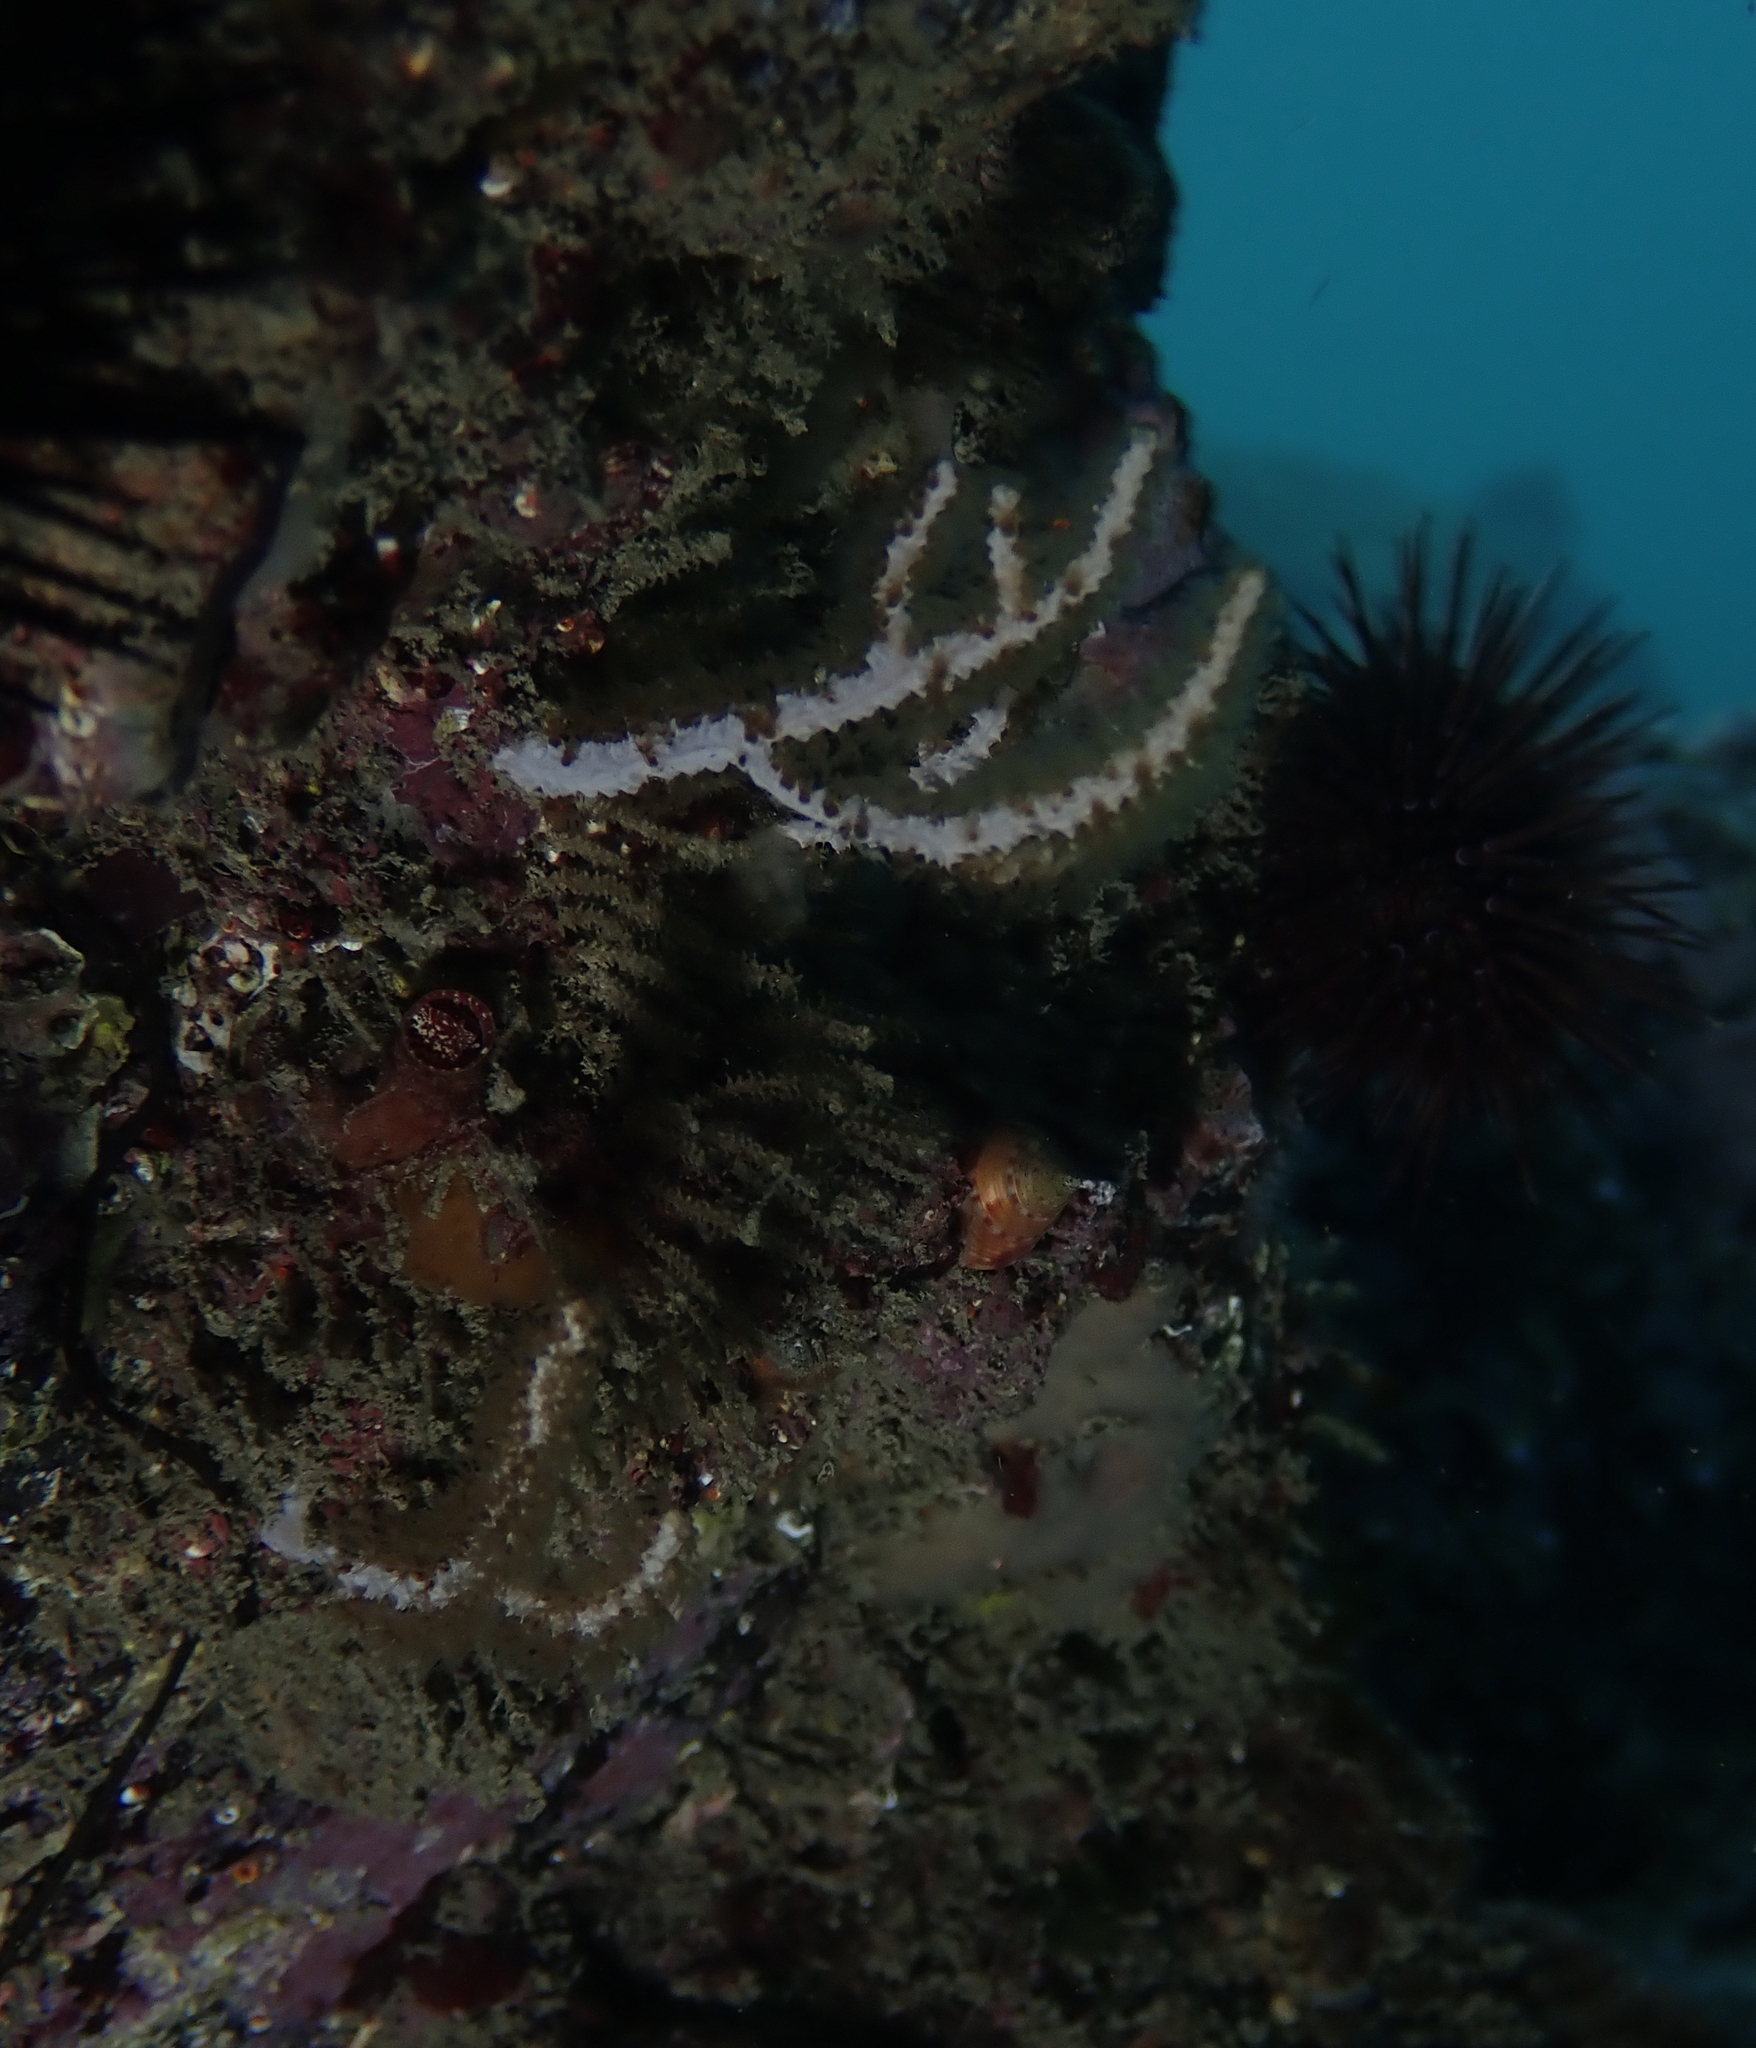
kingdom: Animalia
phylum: Cnidaria
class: Anthozoa
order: Malacalcyonacea
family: Eunicellidae
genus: Eunicella
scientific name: Eunicella singularis
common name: White horny coral
